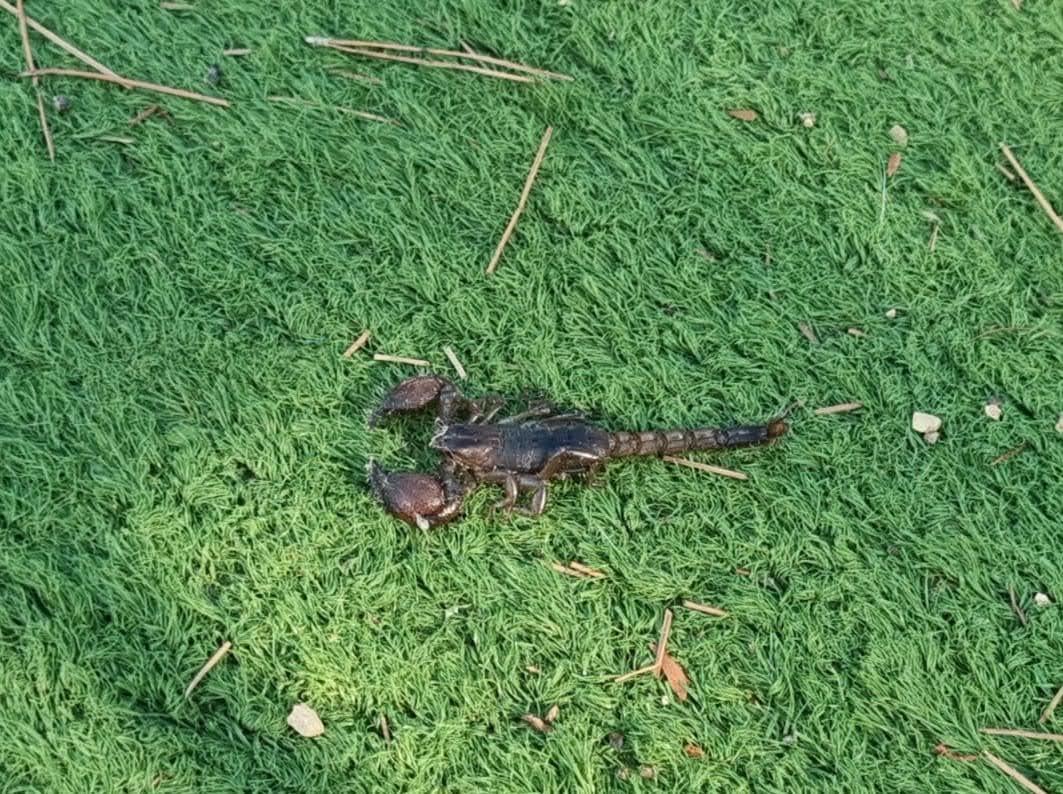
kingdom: Animalia
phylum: Arthropoda
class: Arachnida
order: Scorpiones
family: Scorpionidae
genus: Scorpio
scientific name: Scorpio fuscus
